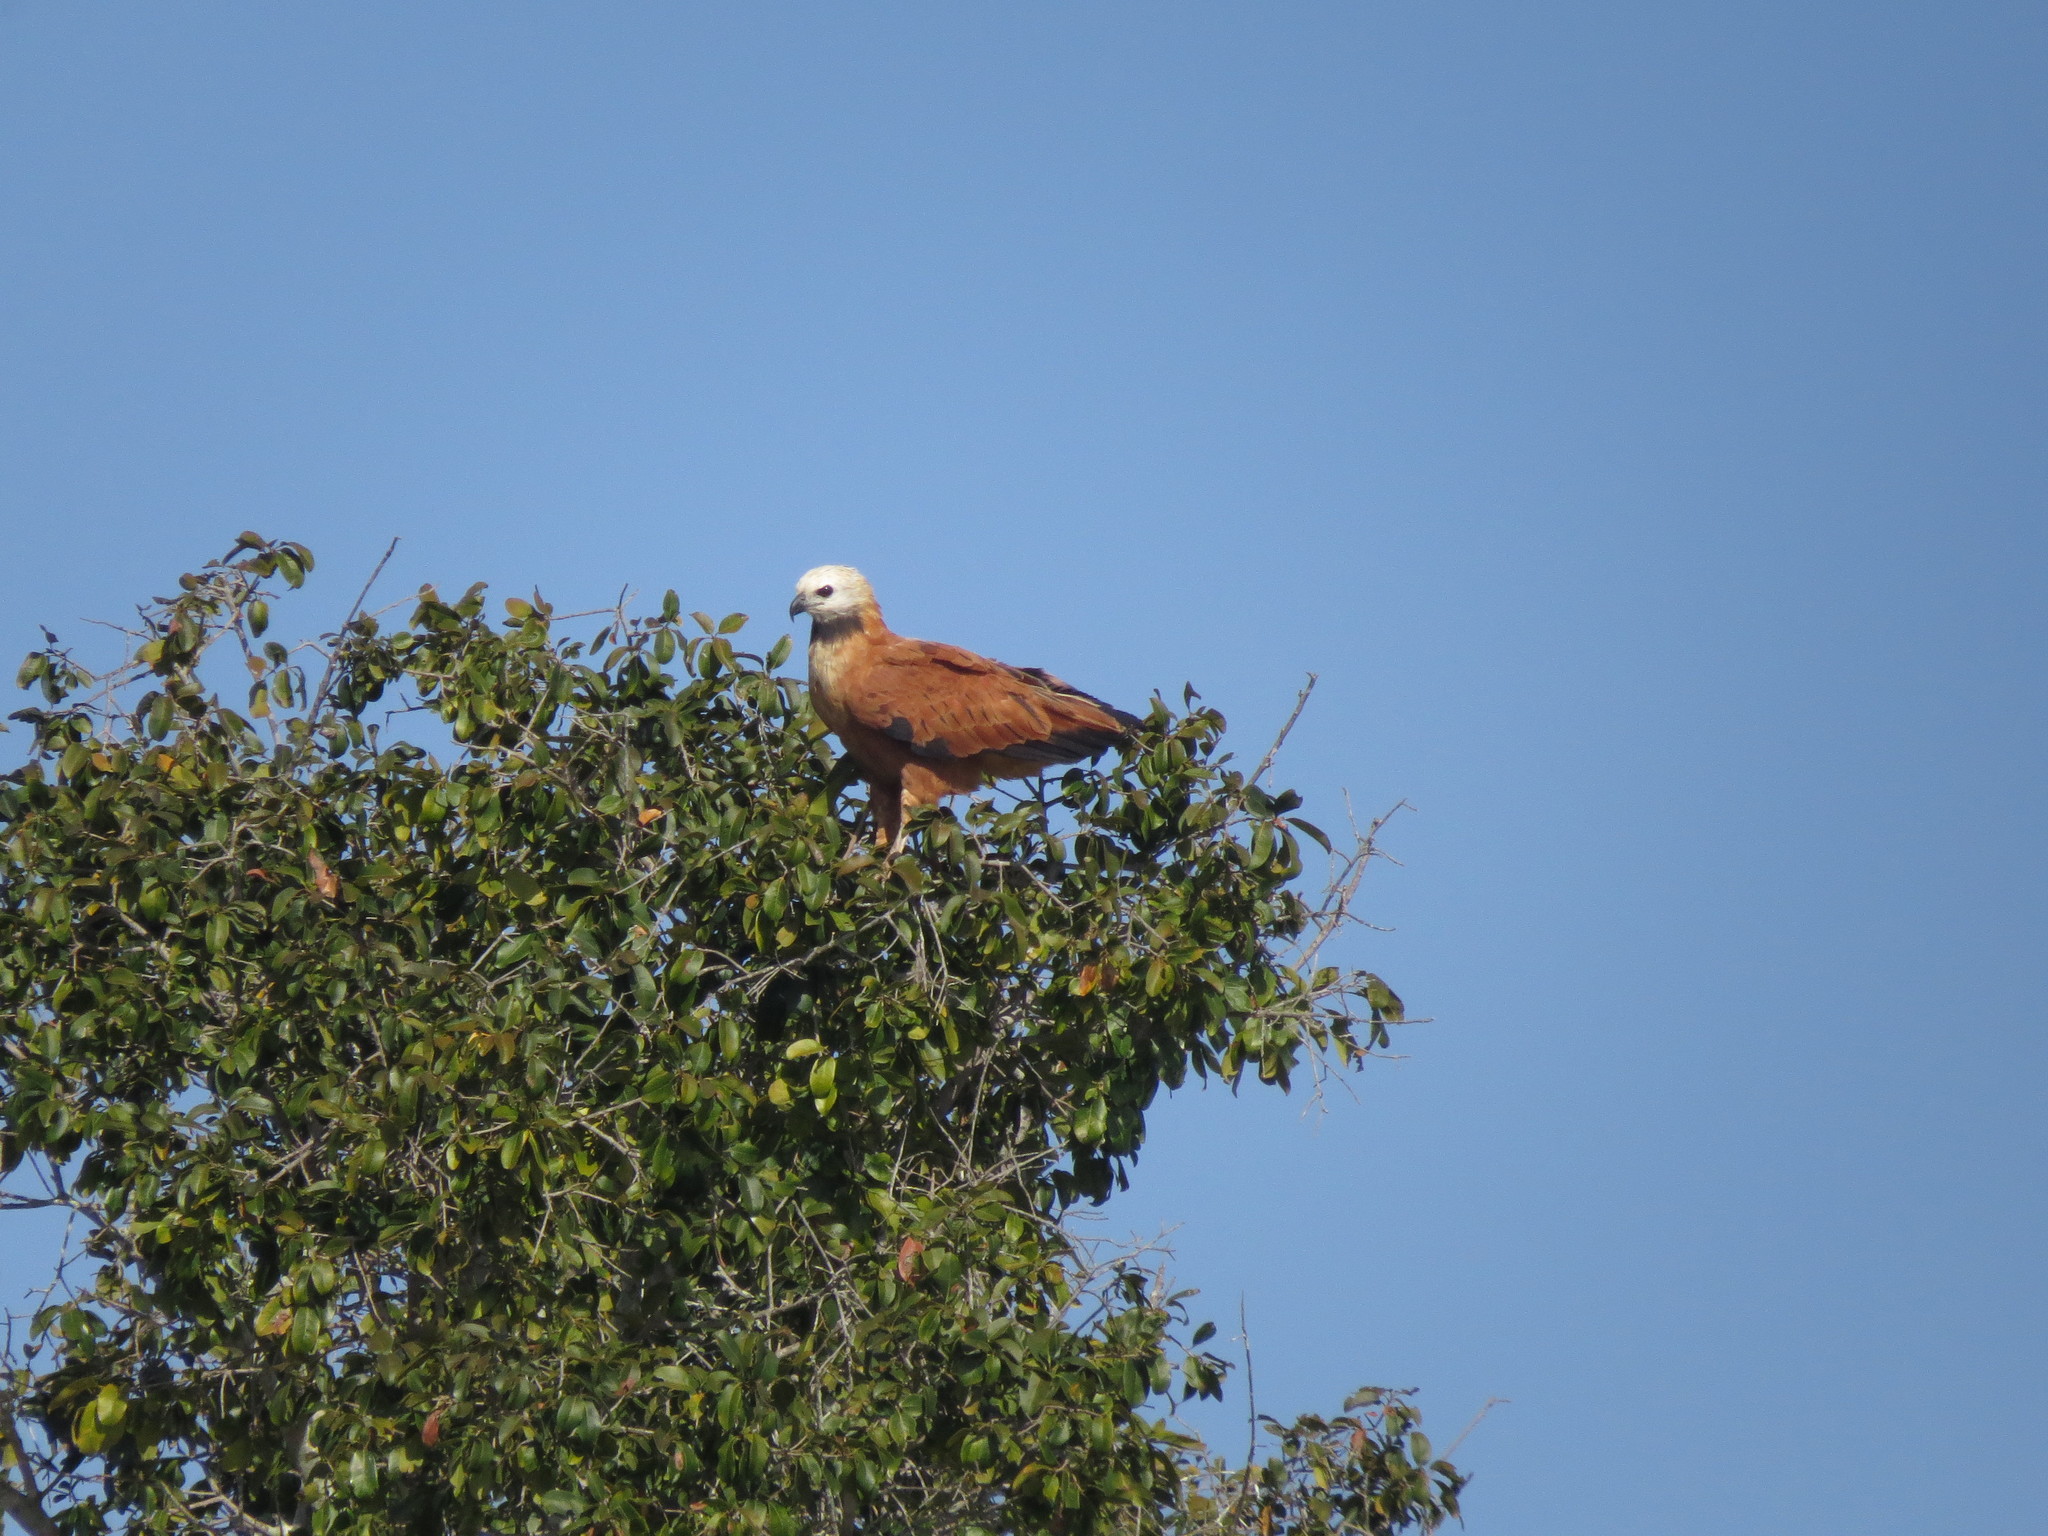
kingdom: Animalia
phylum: Chordata
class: Aves
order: Accipitriformes
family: Accipitridae
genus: Busarellus
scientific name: Busarellus nigricollis
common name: Black-collared hawk
